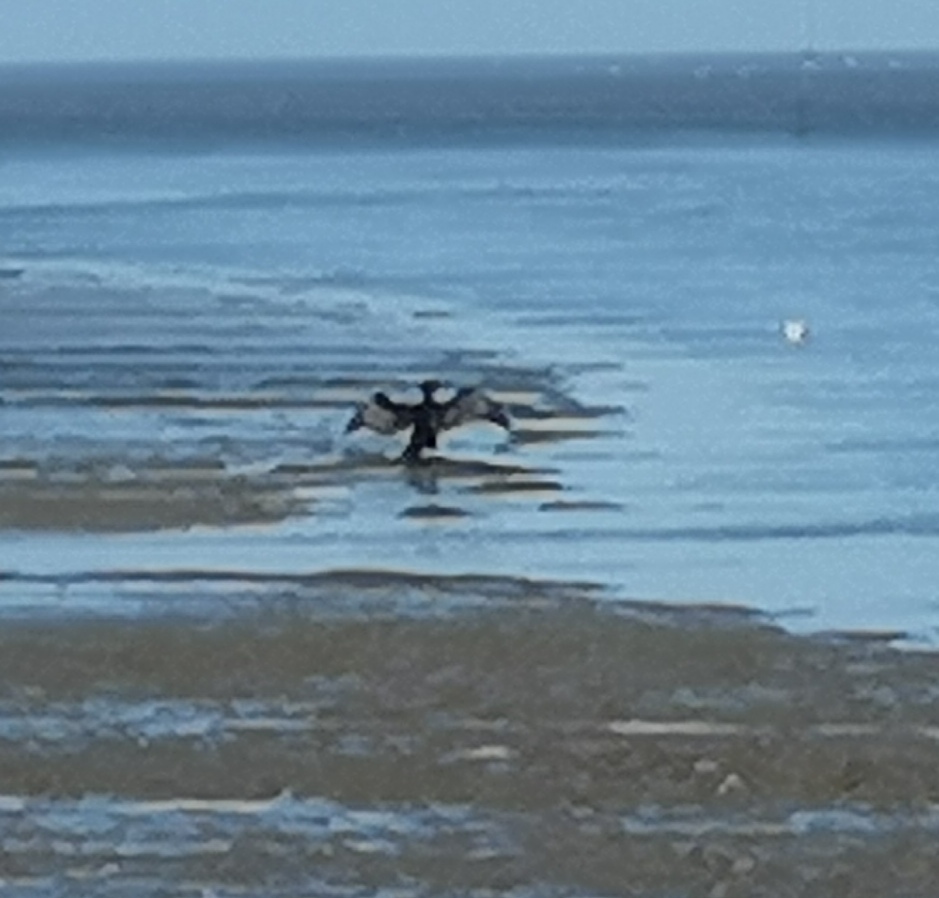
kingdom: Animalia
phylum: Chordata
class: Aves
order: Suliformes
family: Phalacrocoracidae
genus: Phalacrocorax
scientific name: Phalacrocorax carbo
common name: Great cormorant
